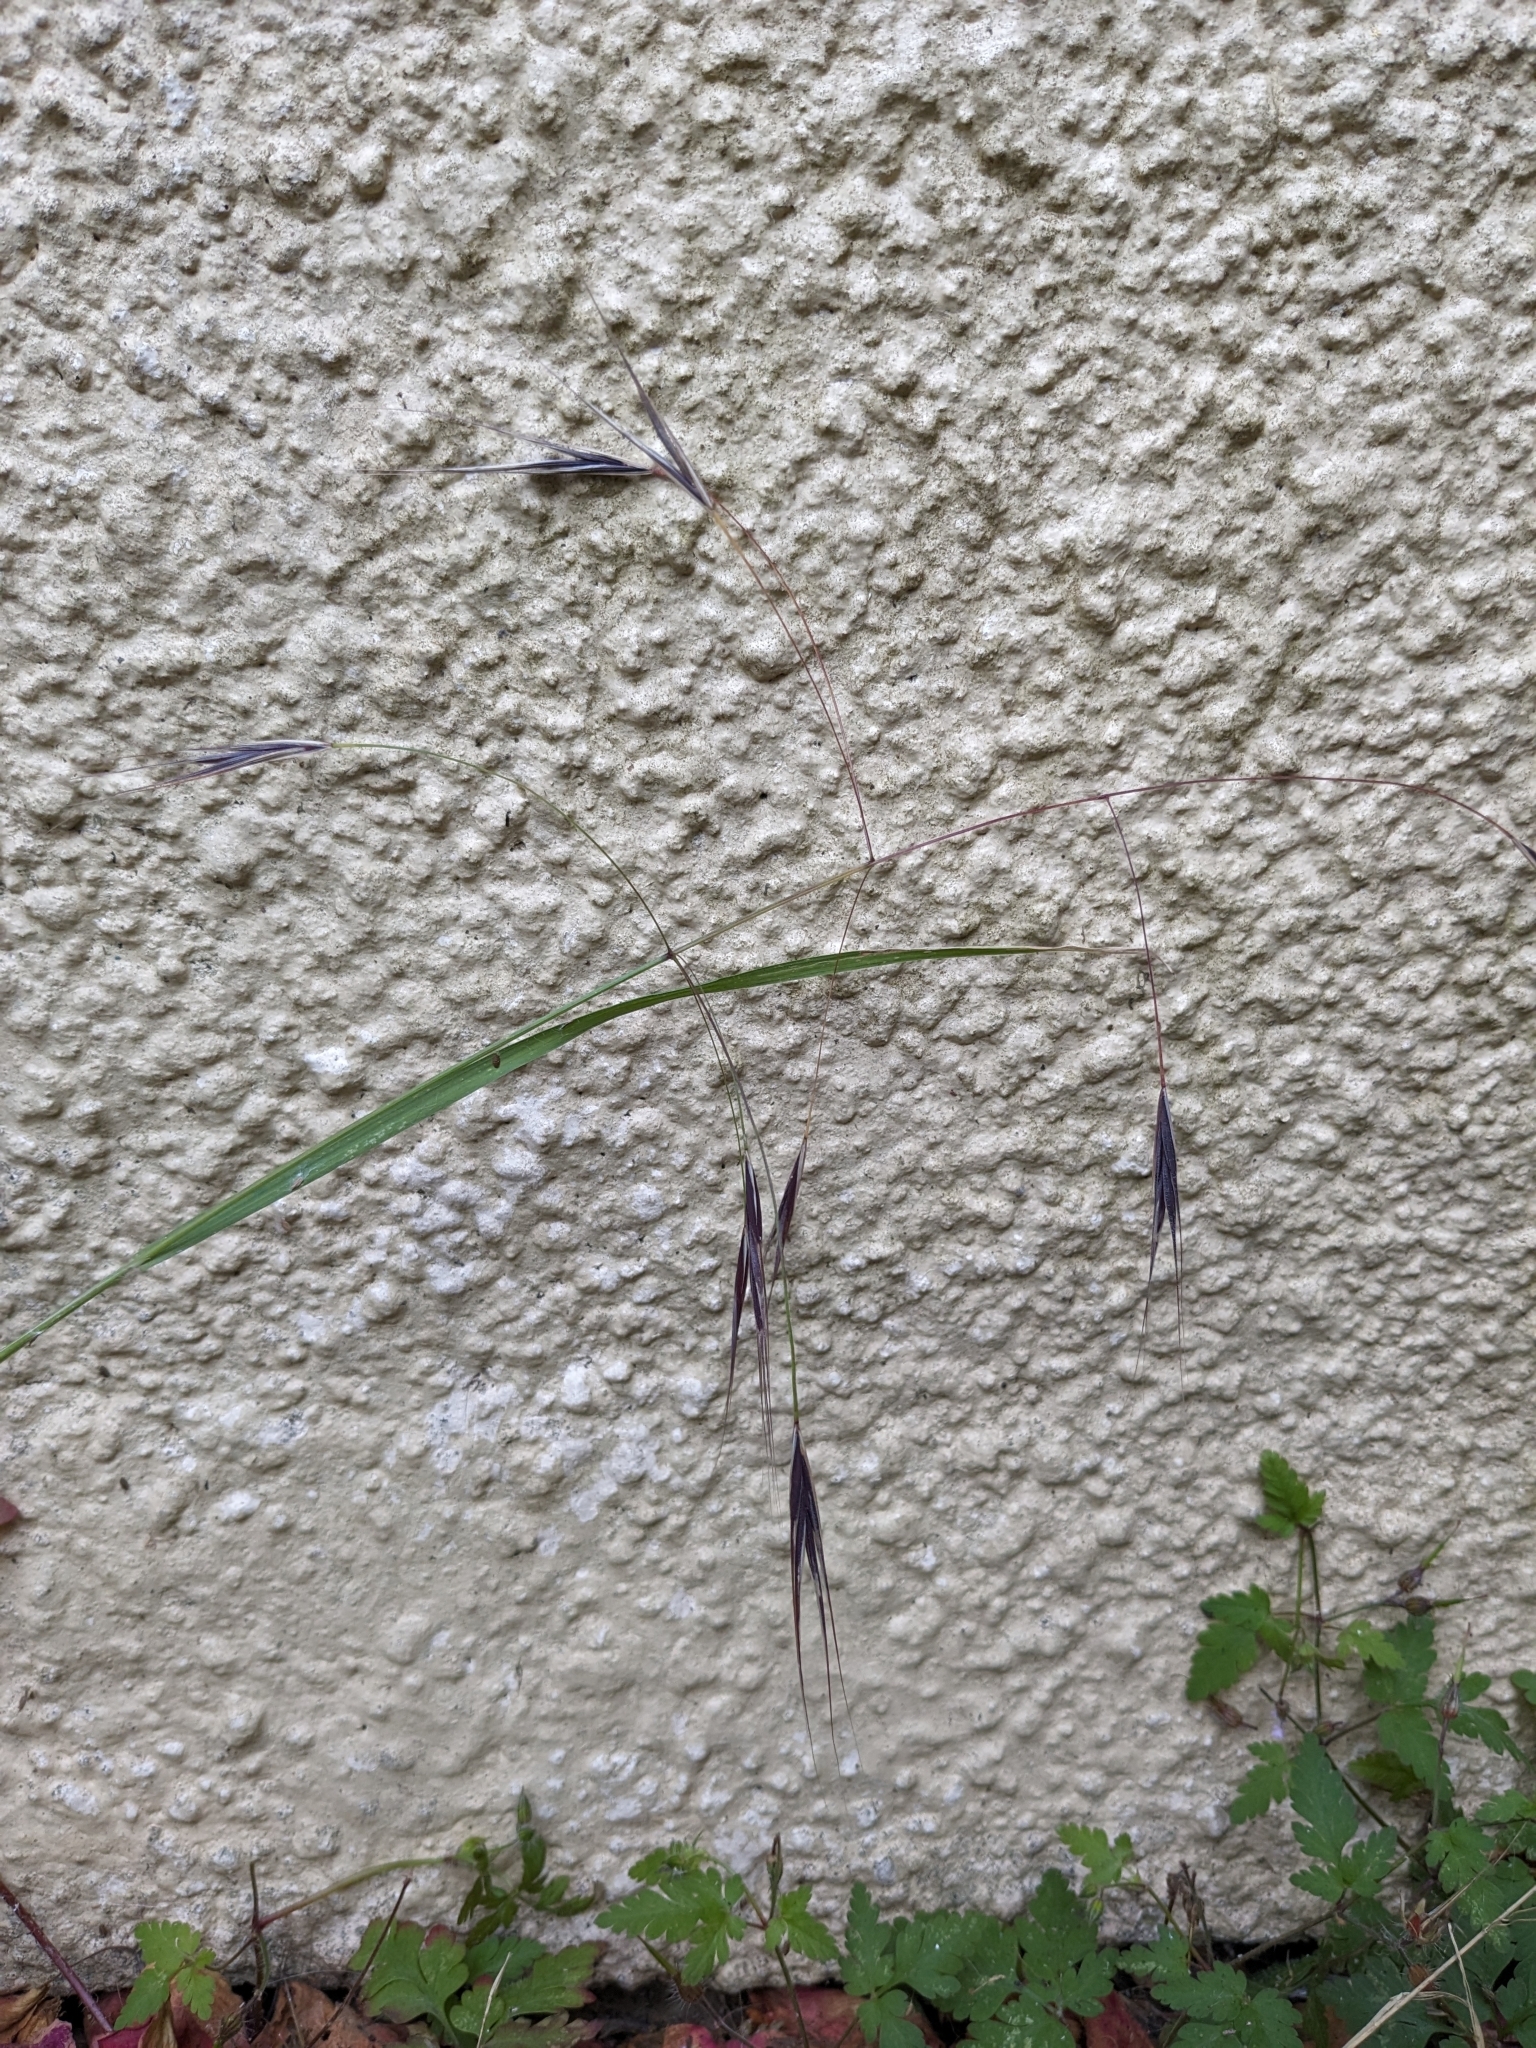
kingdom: Plantae
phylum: Tracheophyta
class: Liliopsida
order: Poales
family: Poaceae
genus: Bromus
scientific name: Bromus sterilis
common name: Poverty brome
